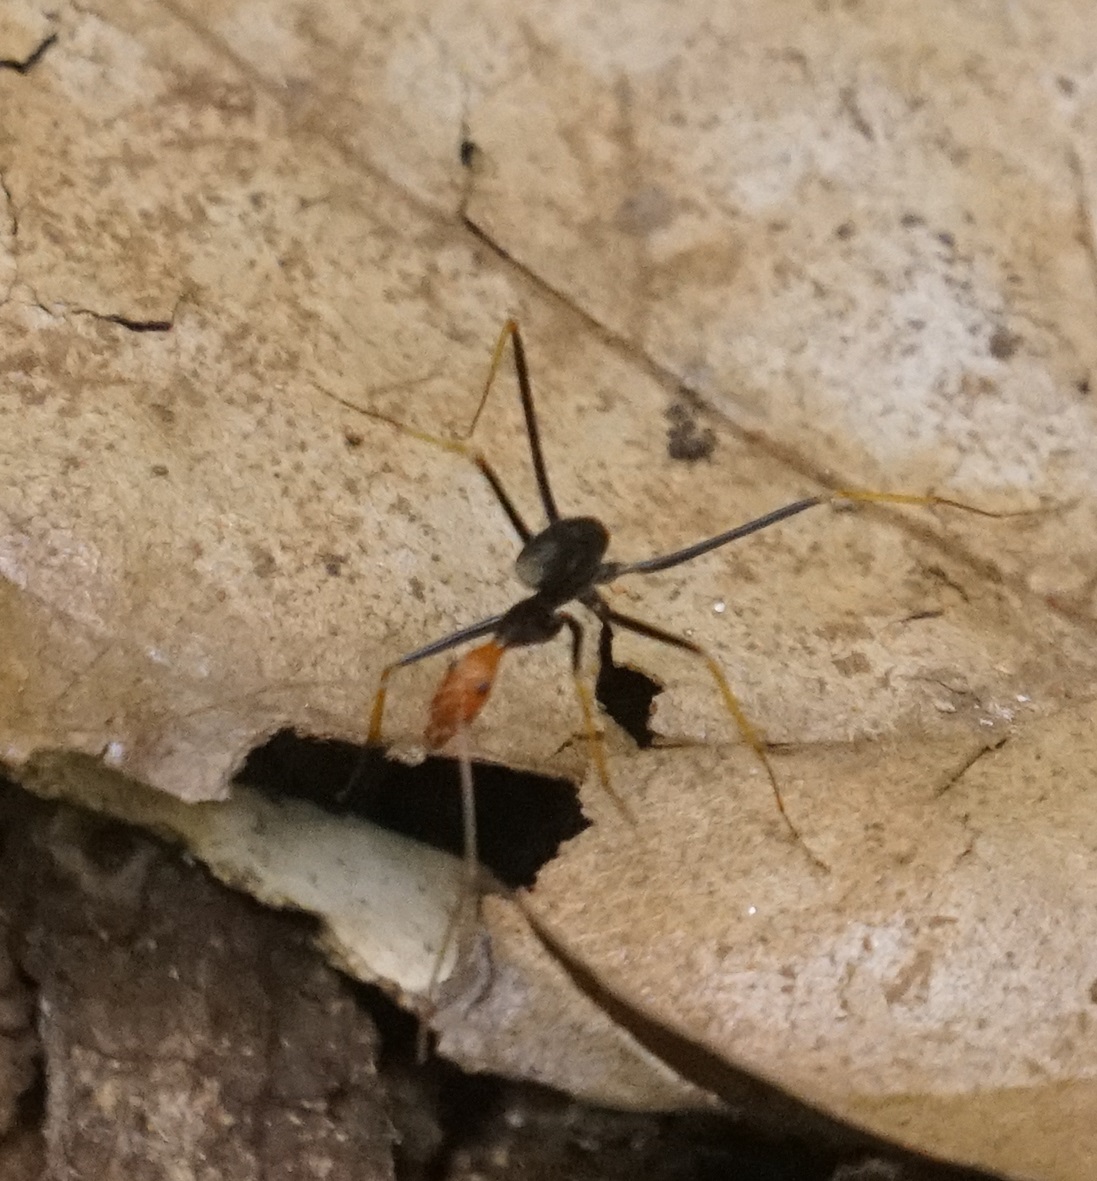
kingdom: Animalia
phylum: Arthropoda
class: Insecta
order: Hymenoptera
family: Formicidae
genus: Leptomyrmex
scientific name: Leptomyrmex ruficeps
